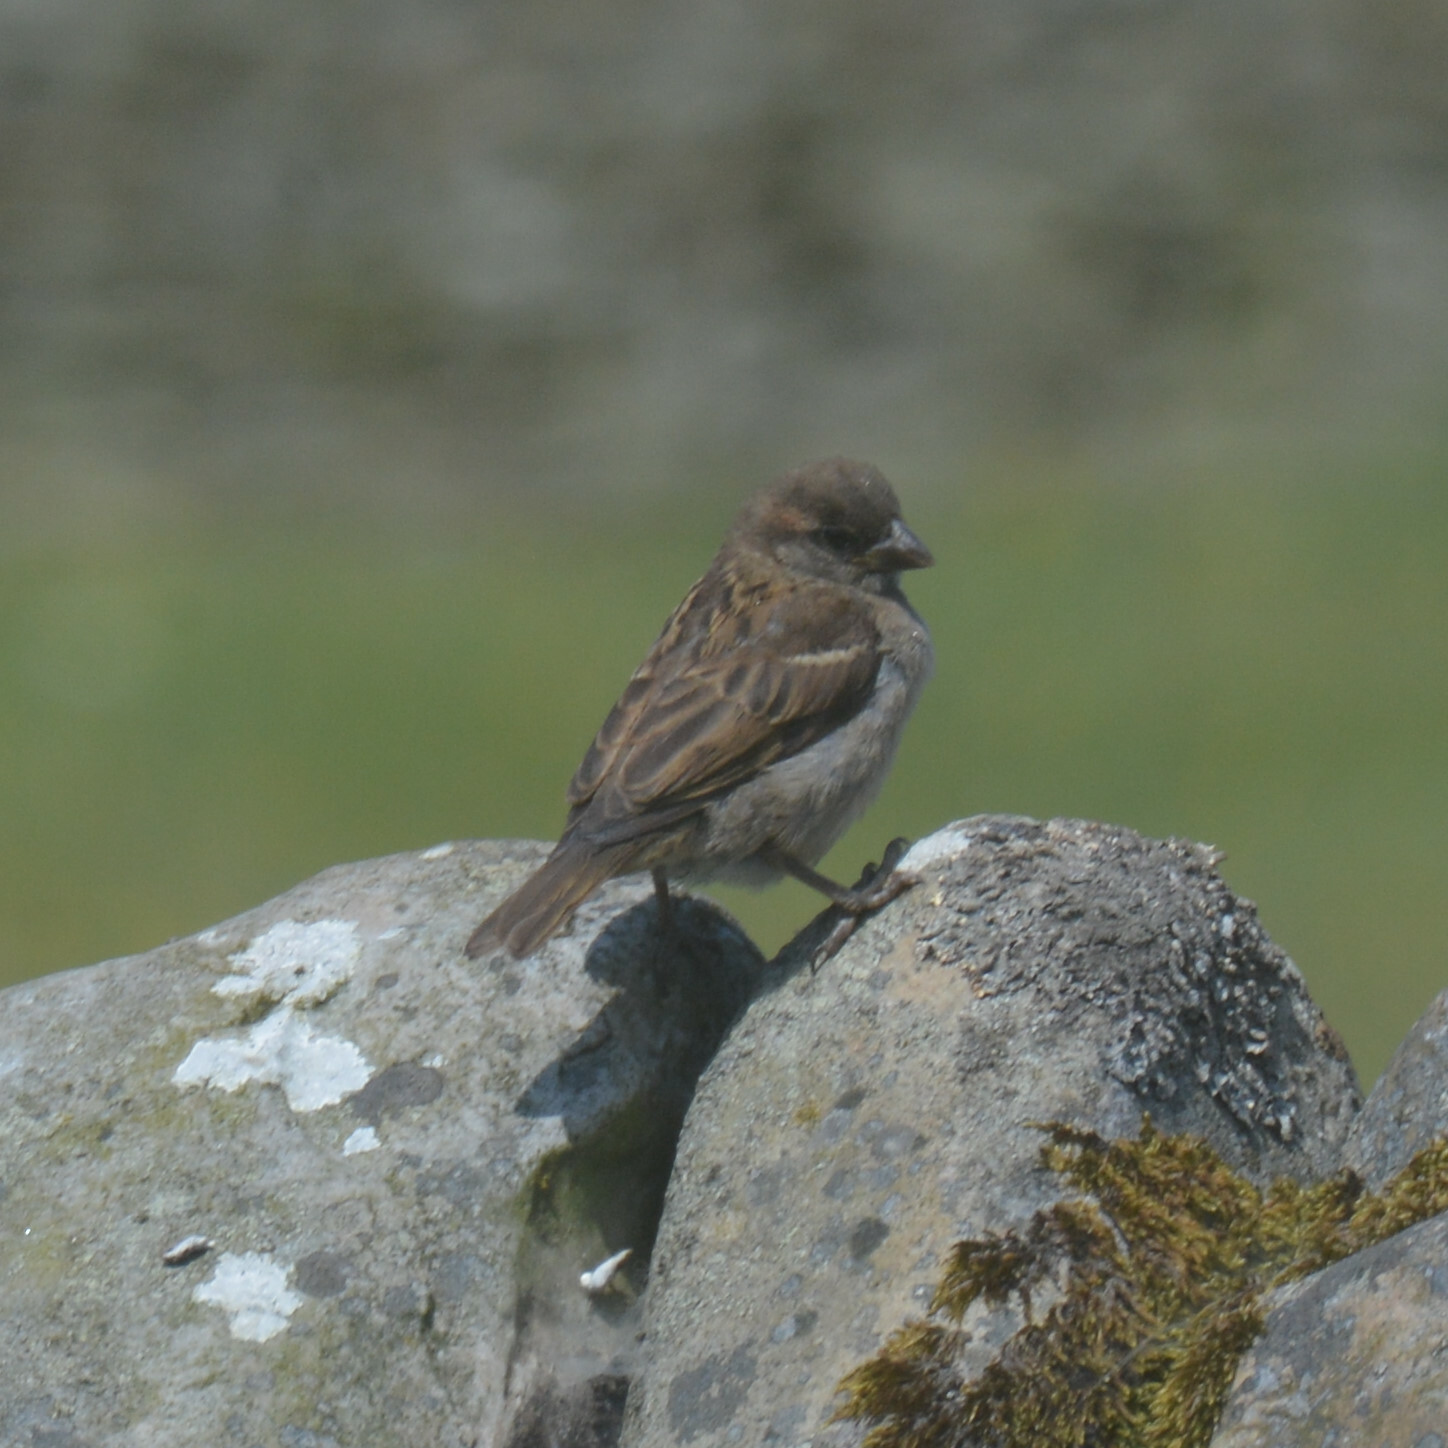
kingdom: Animalia
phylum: Chordata
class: Aves
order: Passeriformes
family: Passeridae
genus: Passer
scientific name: Passer domesticus
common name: House sparrow
